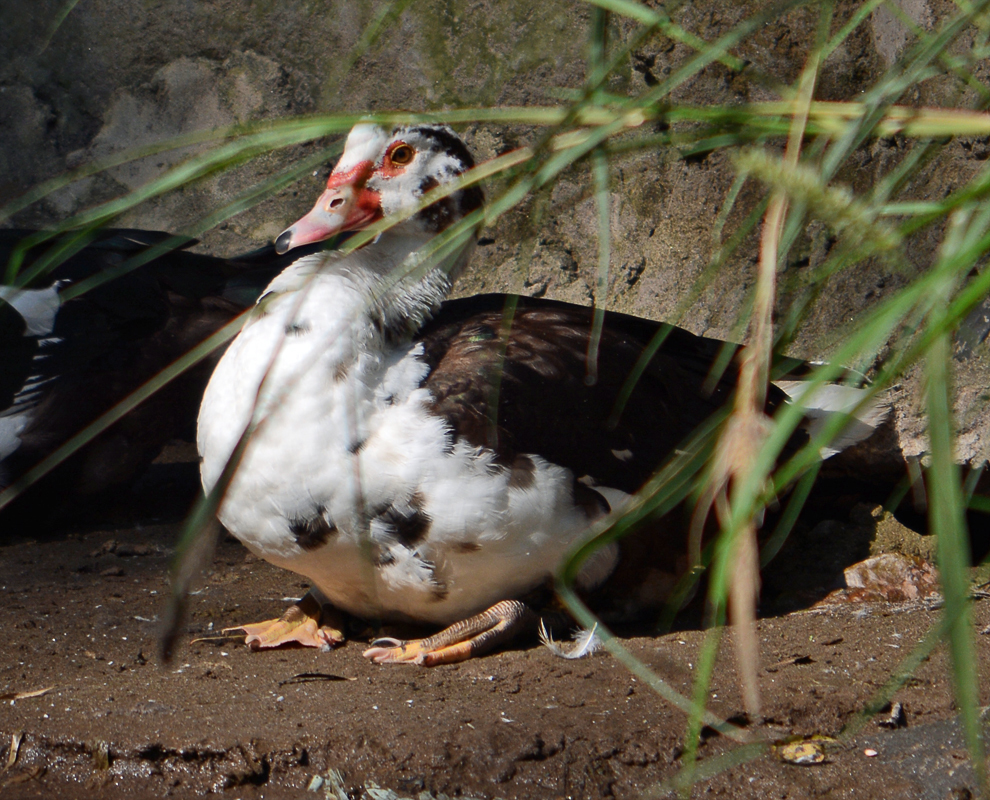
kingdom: Animalia
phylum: Chordata
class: Aves
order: Anseriformes
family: Anatidae
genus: Cairina
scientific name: Cairina moschata
